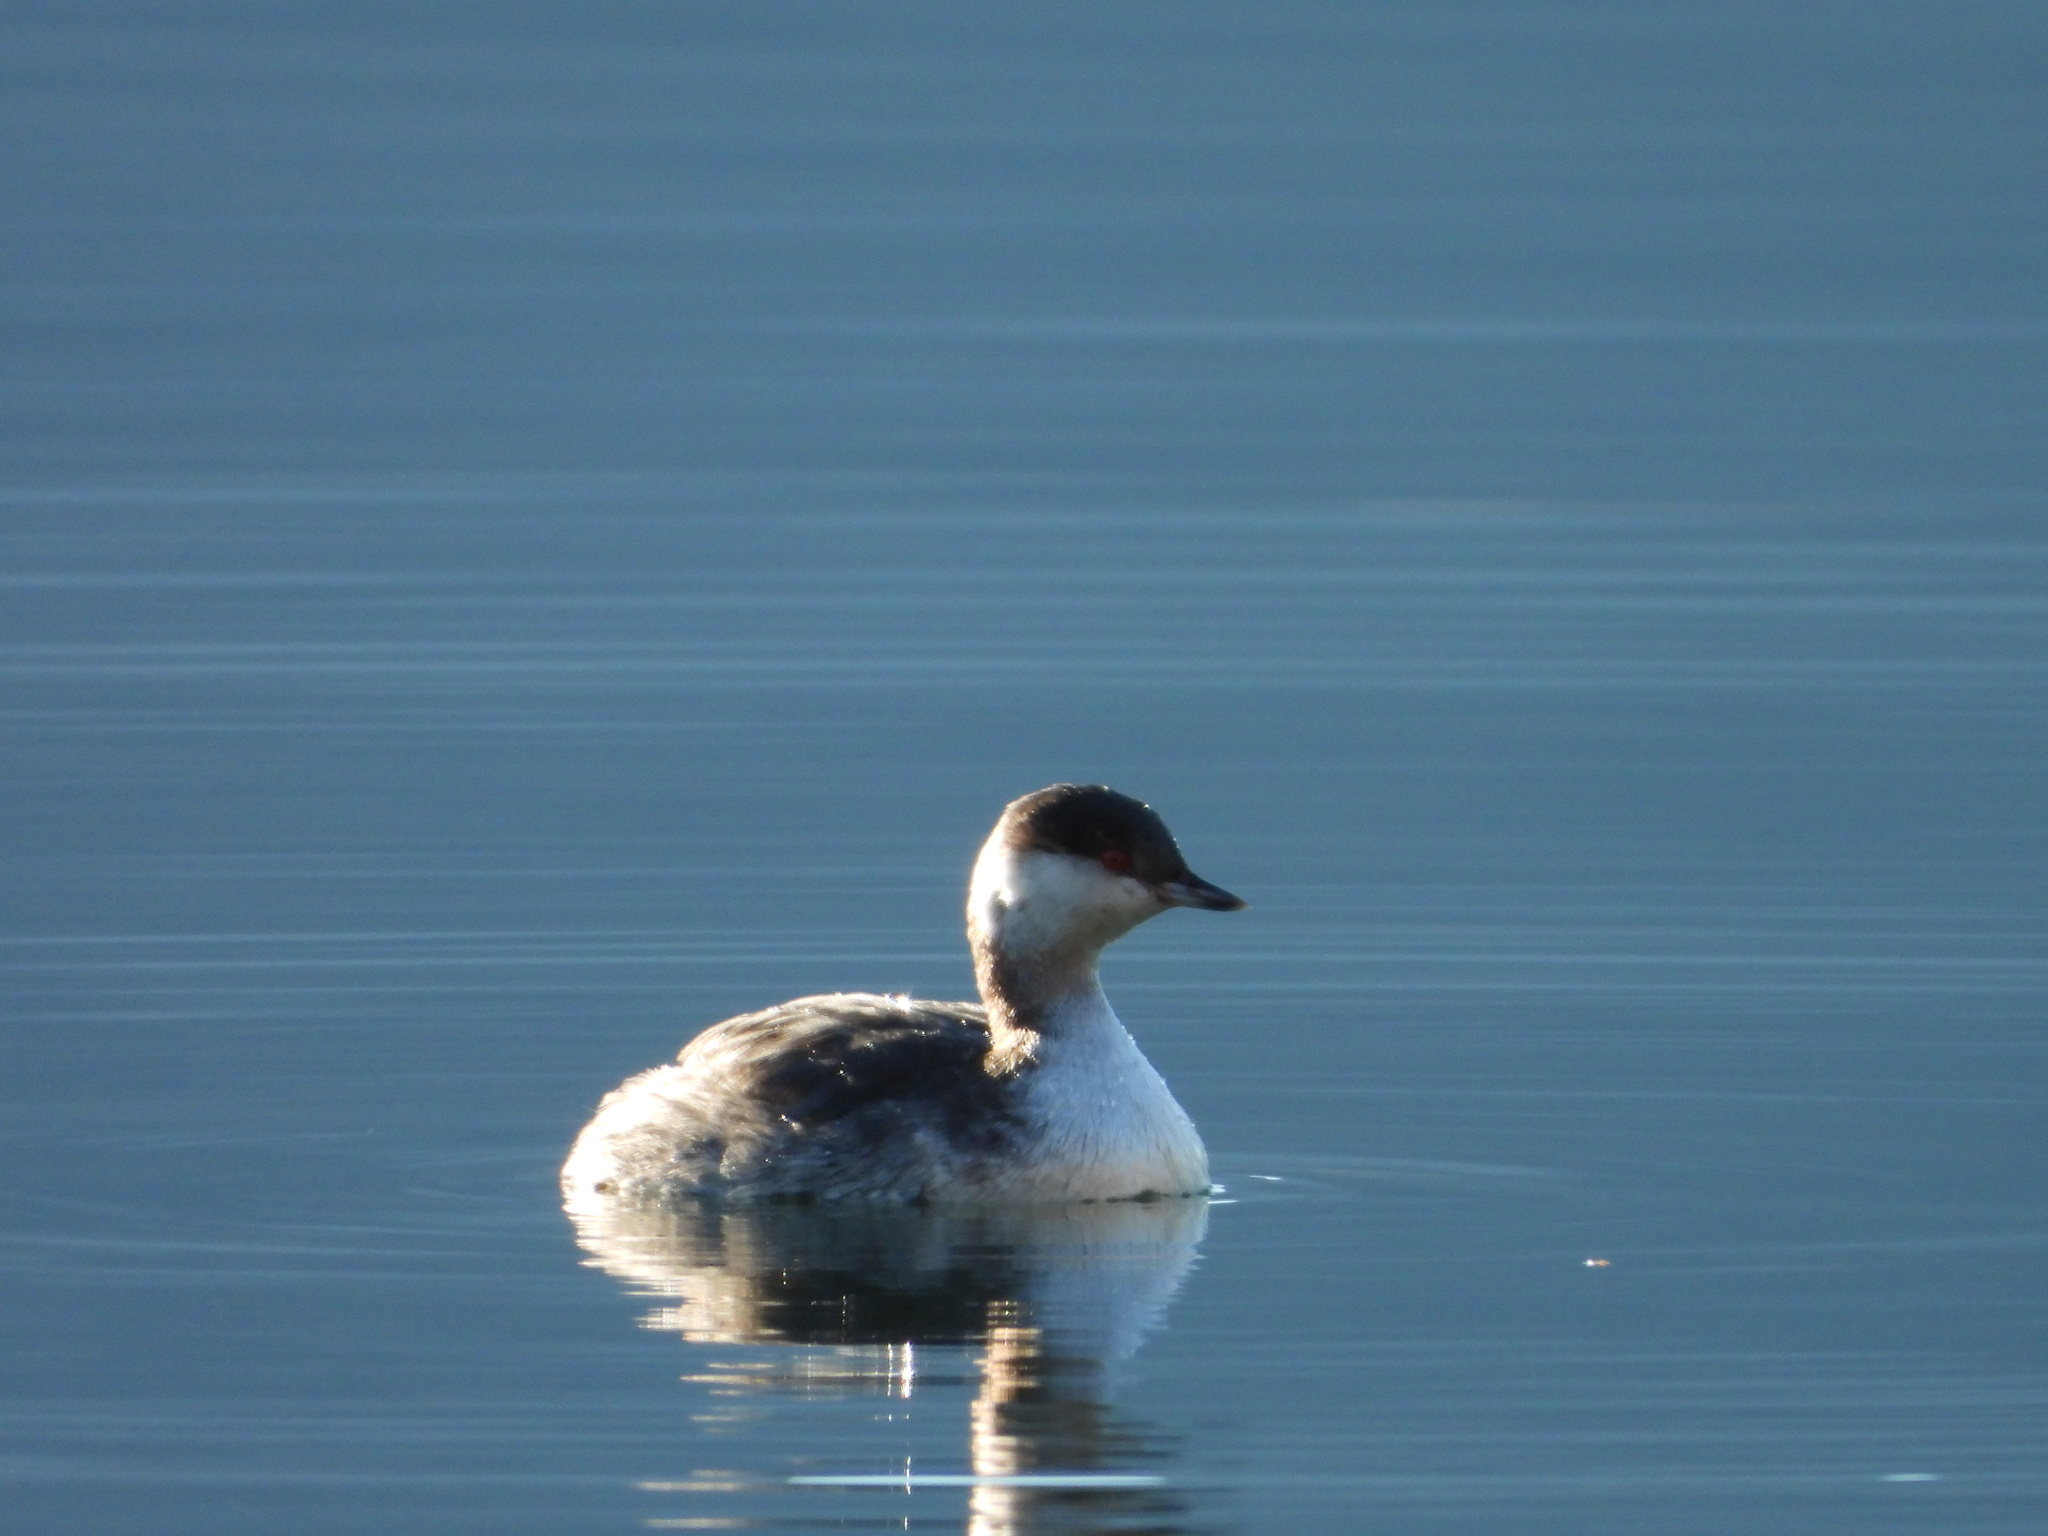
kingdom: Animalia
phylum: Chordata
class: Aves
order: Podicipediformes
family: Podicipedidae
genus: Podiceps
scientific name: Podiceps auritus
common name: Horned grebe
